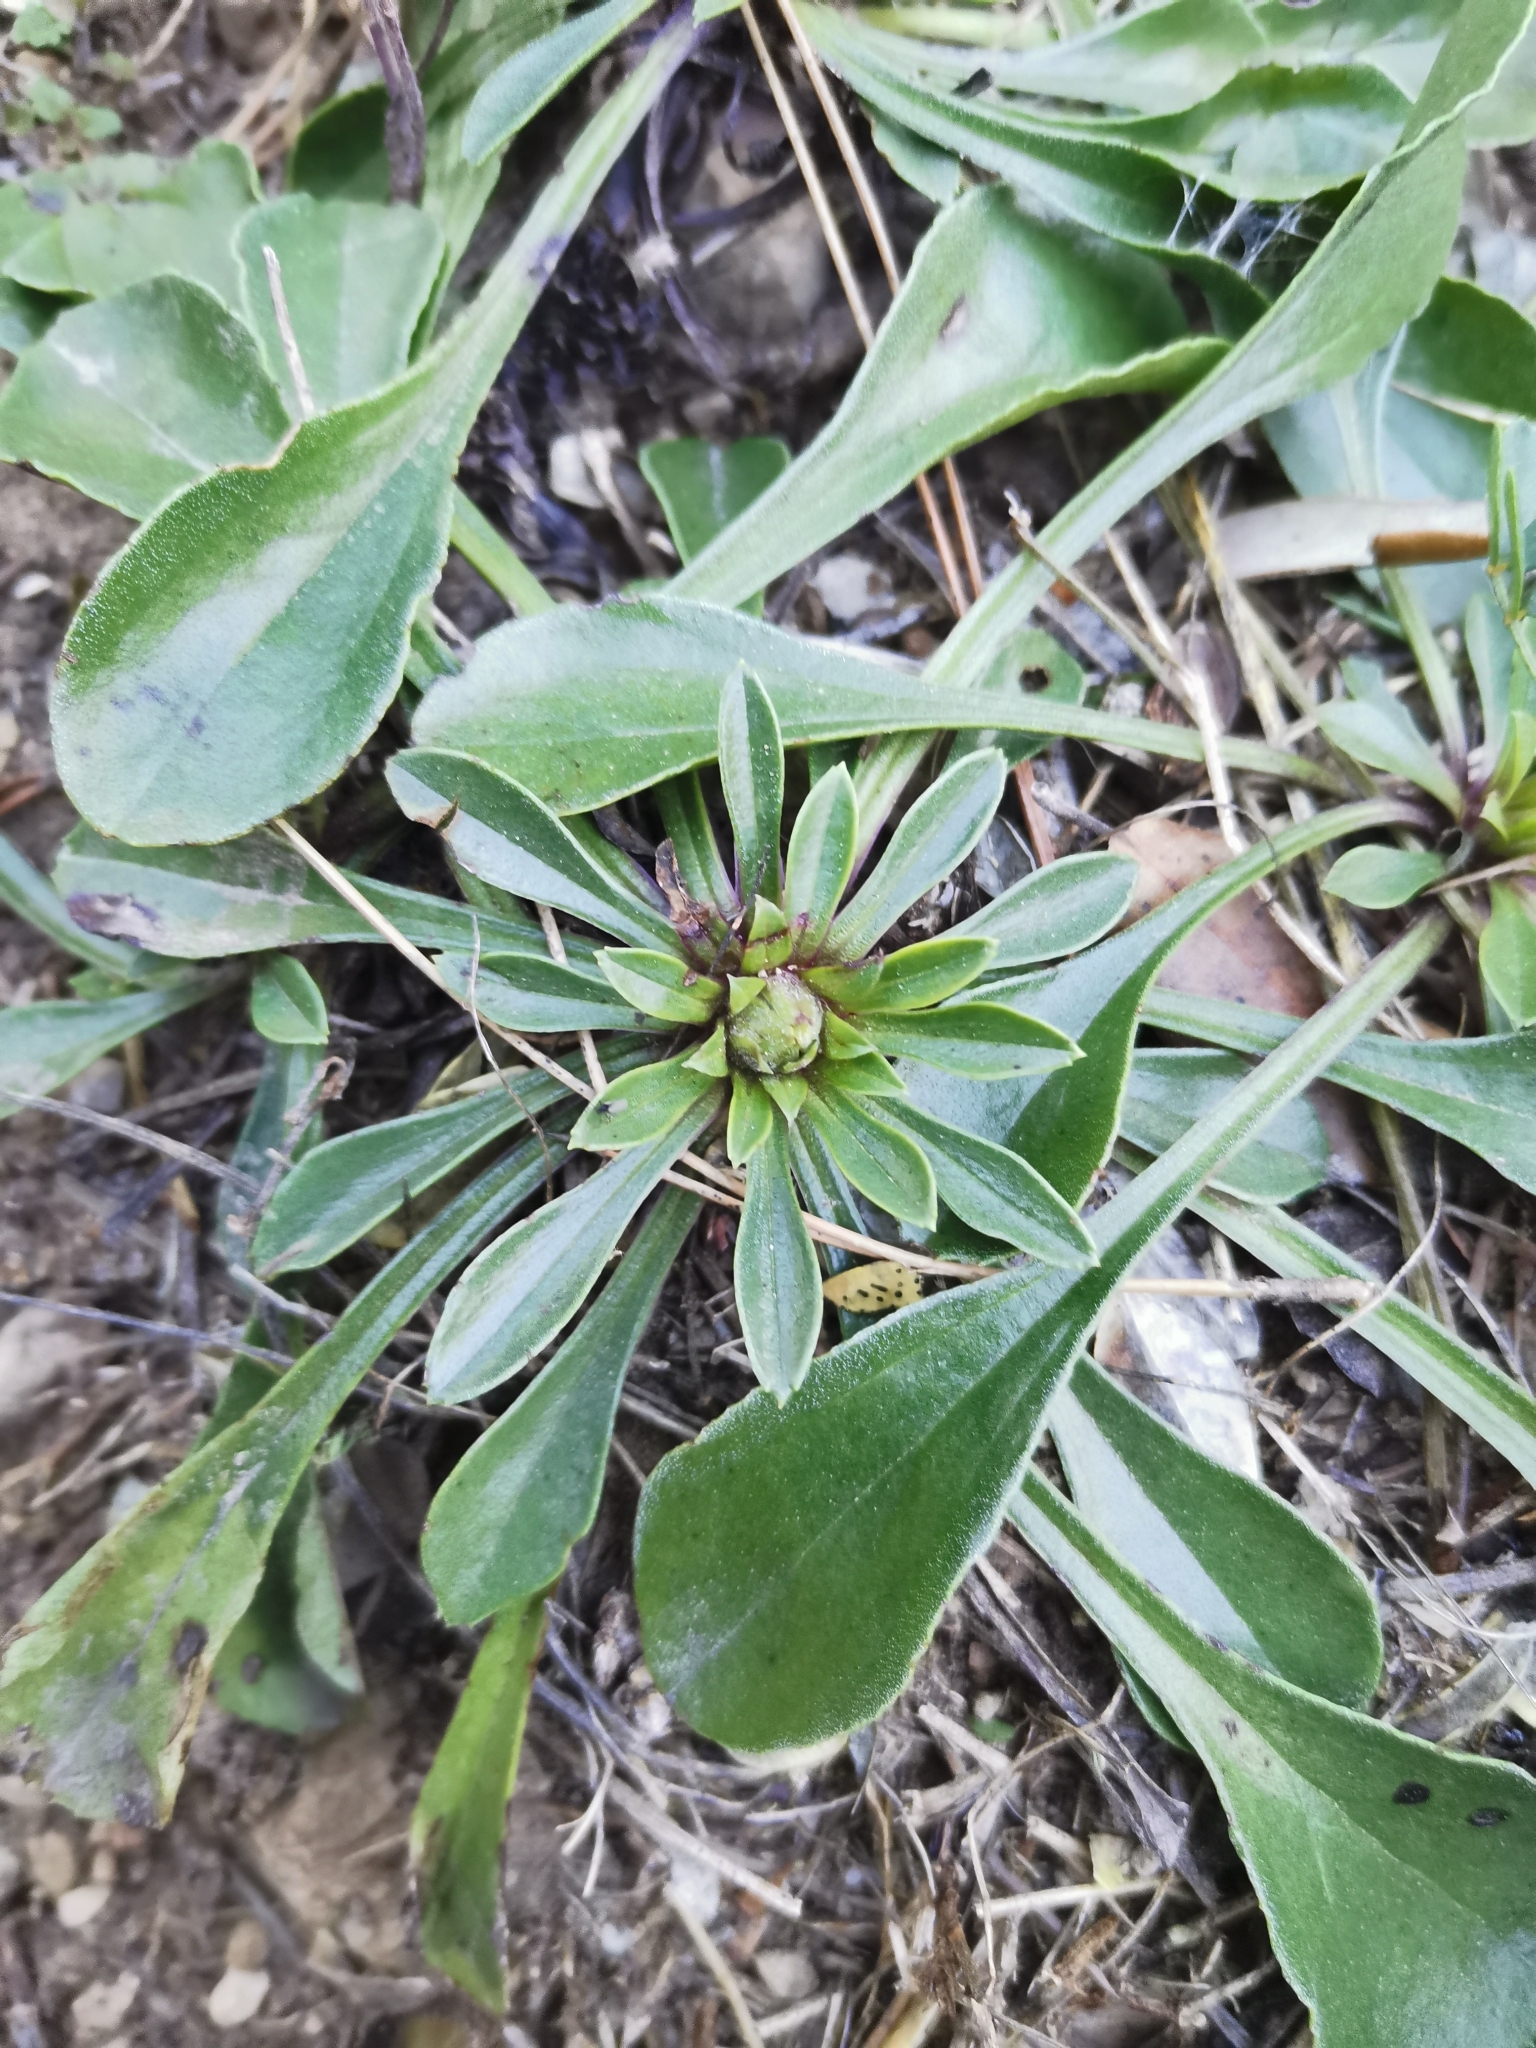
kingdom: Plantae
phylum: Tracheophyta
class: Magnoliopsida
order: Lamiales
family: Plantaginaceae
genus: Globularia
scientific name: Globularia vulgaris
